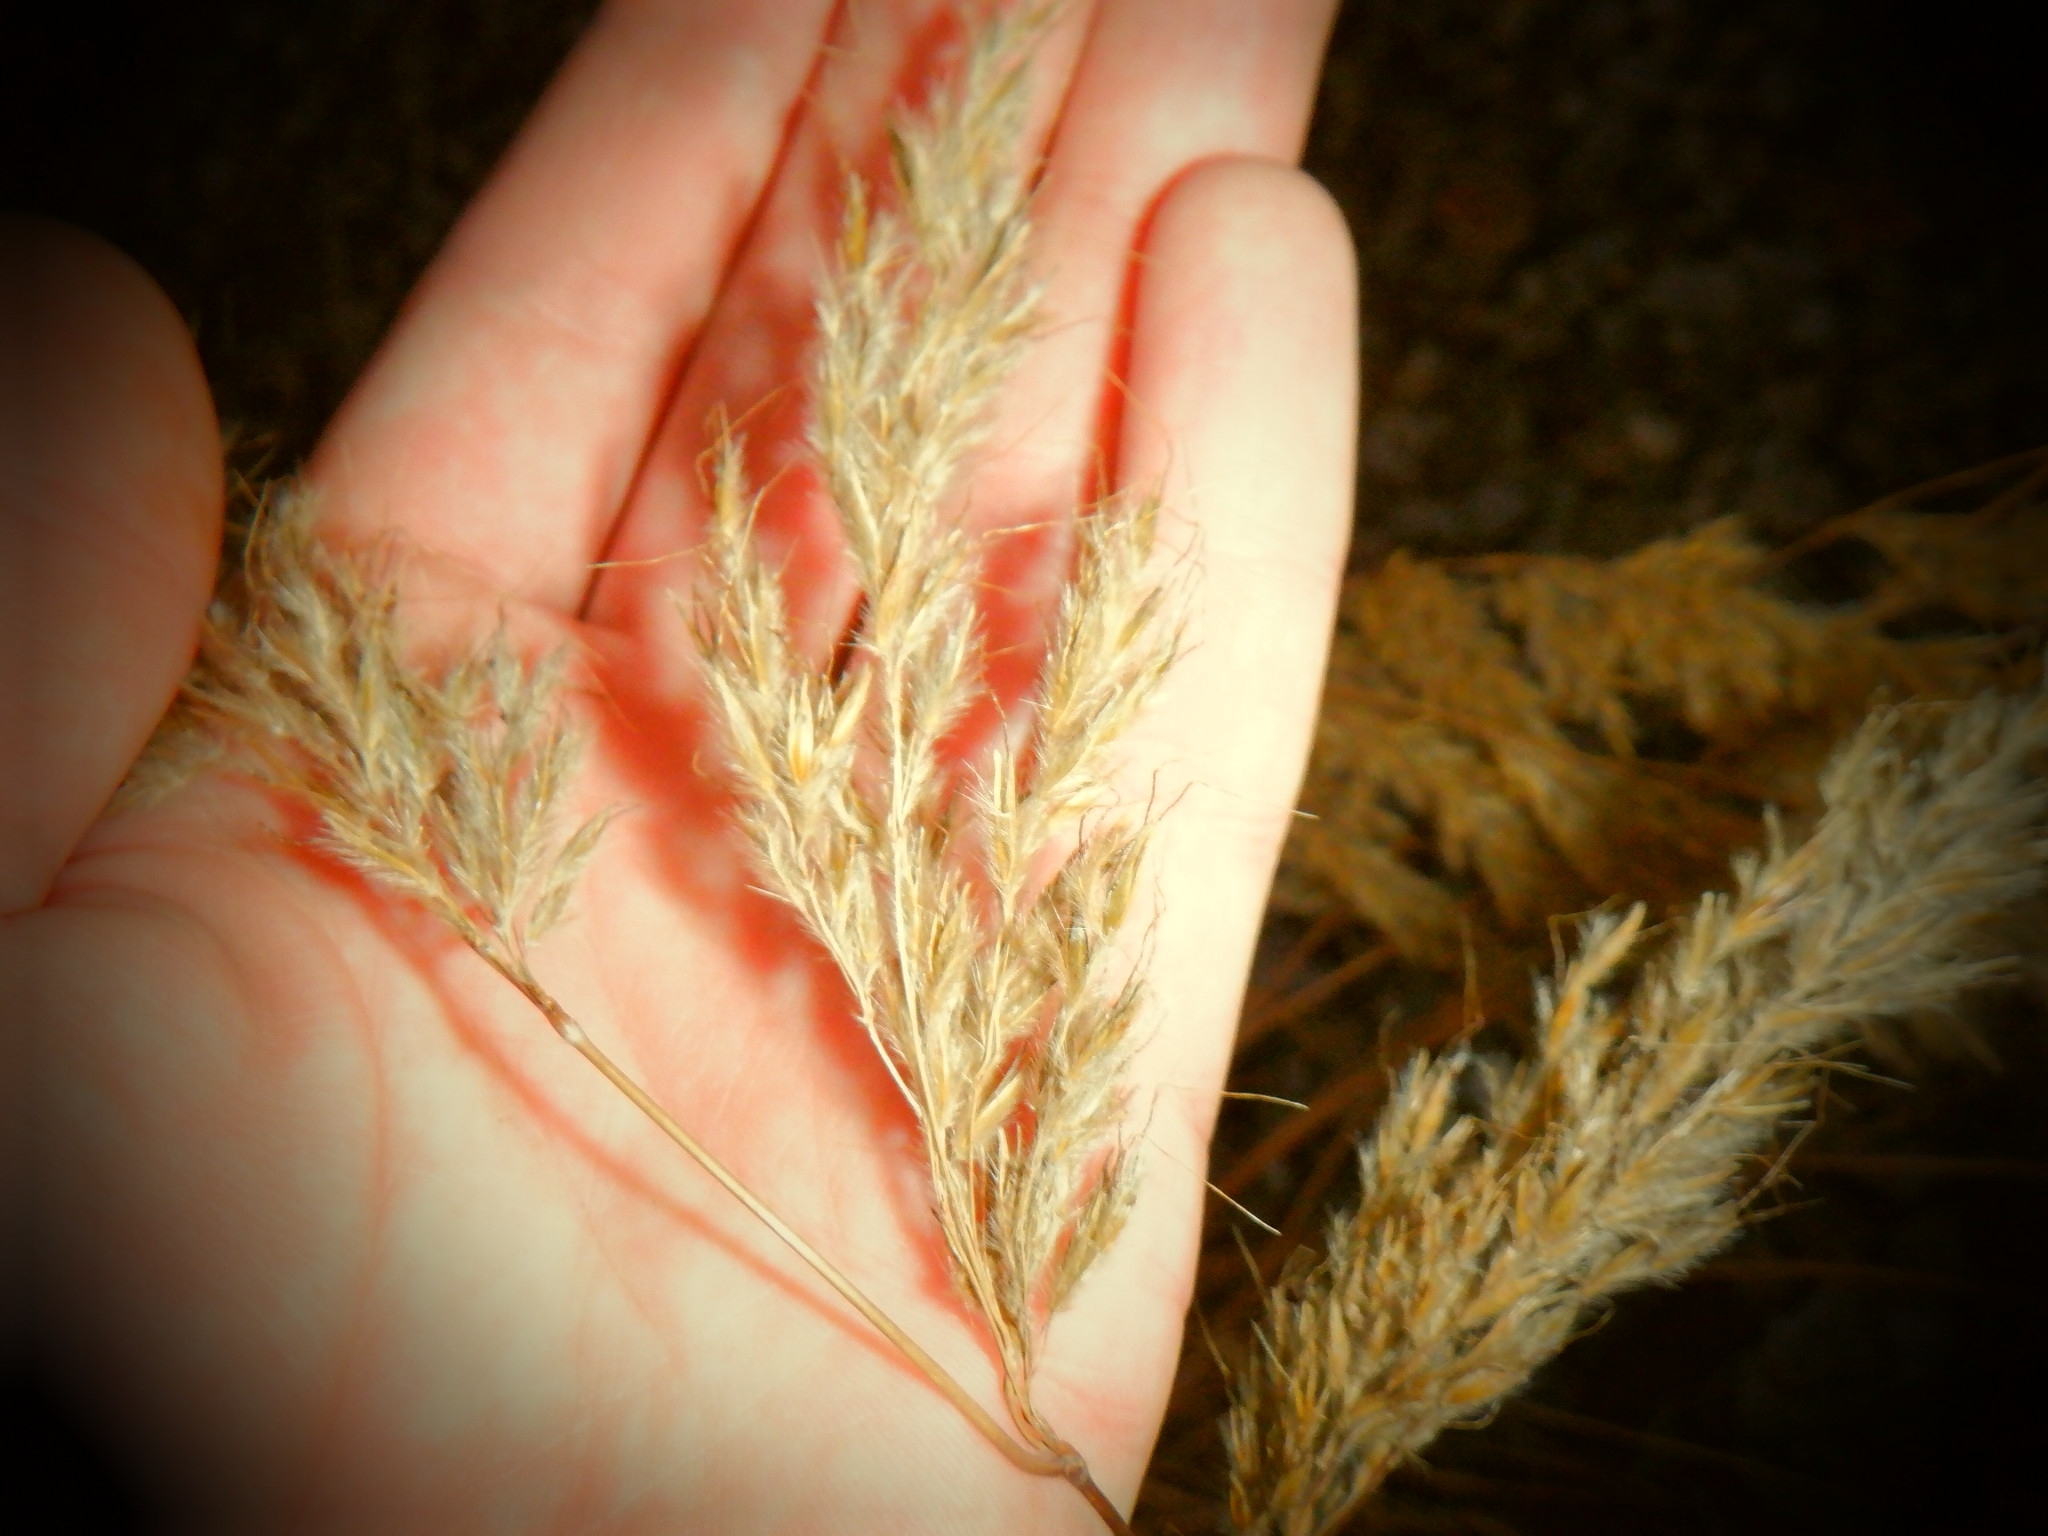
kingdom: Plantae
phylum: Tracheophyta
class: Liliopsida
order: Poales
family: Poaceae
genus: Calamagrostis
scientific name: Calamagrostis epigejos
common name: Wood small-reed
